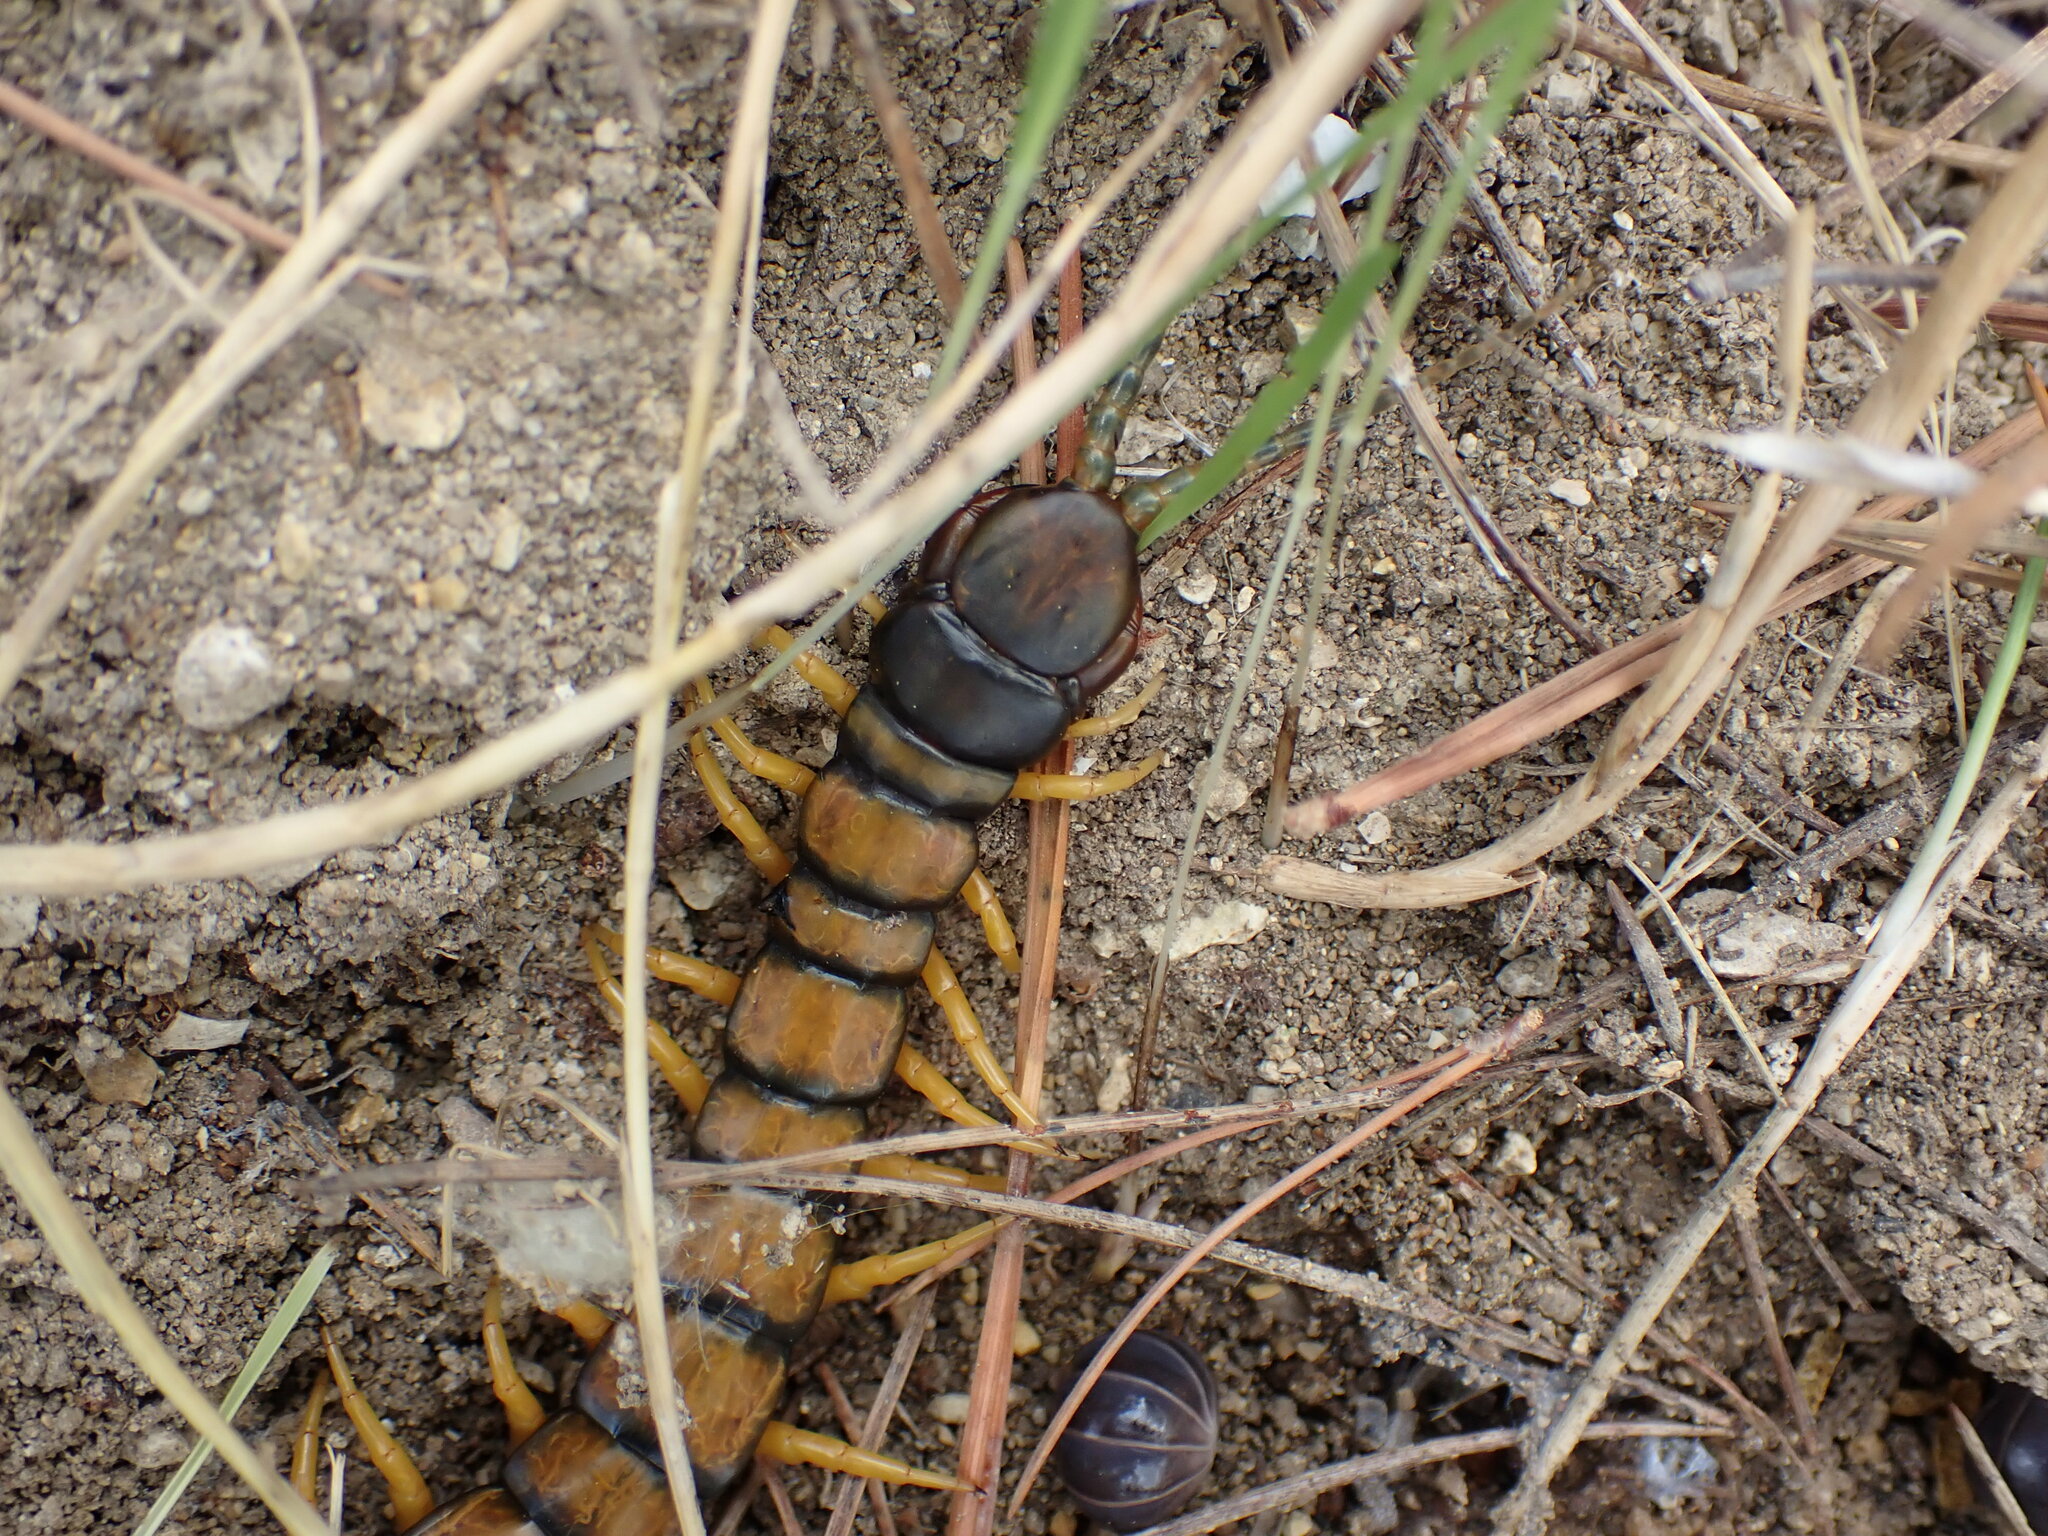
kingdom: Animalia
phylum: Arthropoda
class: Chilopoda
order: Scolopendromorpha
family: Scolopendridae
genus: Scolopendra
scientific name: Scolopendra cingulata
